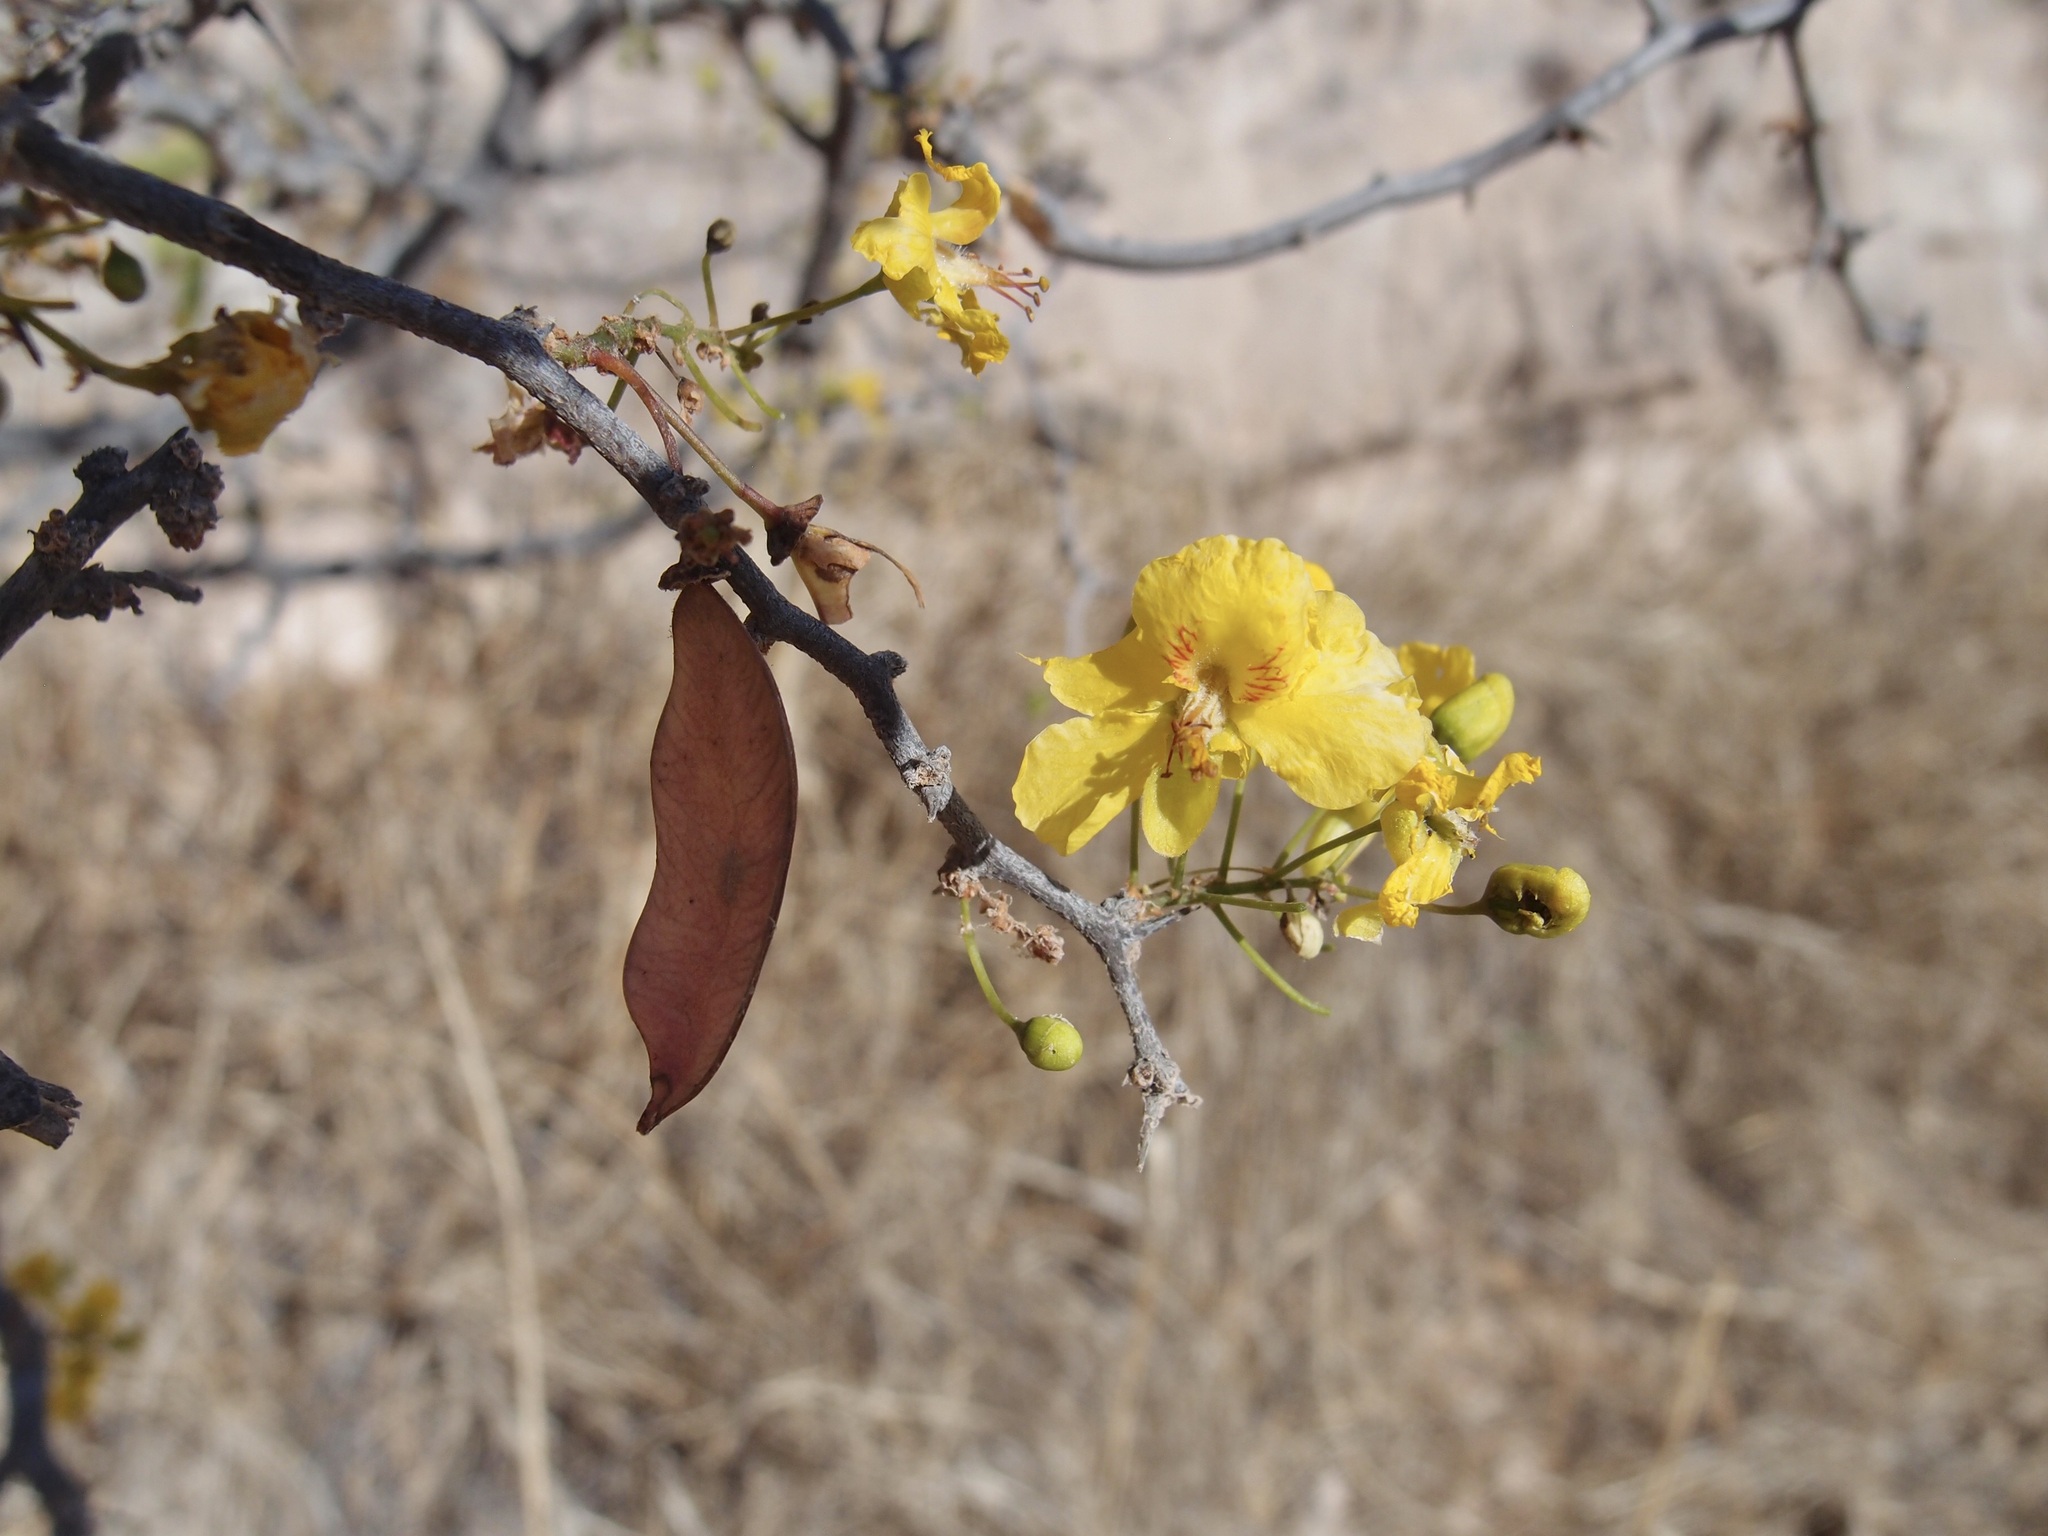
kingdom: Plantae
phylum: Tracheophyta
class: Magnoliopsida
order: Fabales
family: Fabaceae
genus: Haematoxylum
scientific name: Haematoxylum brasiletto
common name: Peachwood
